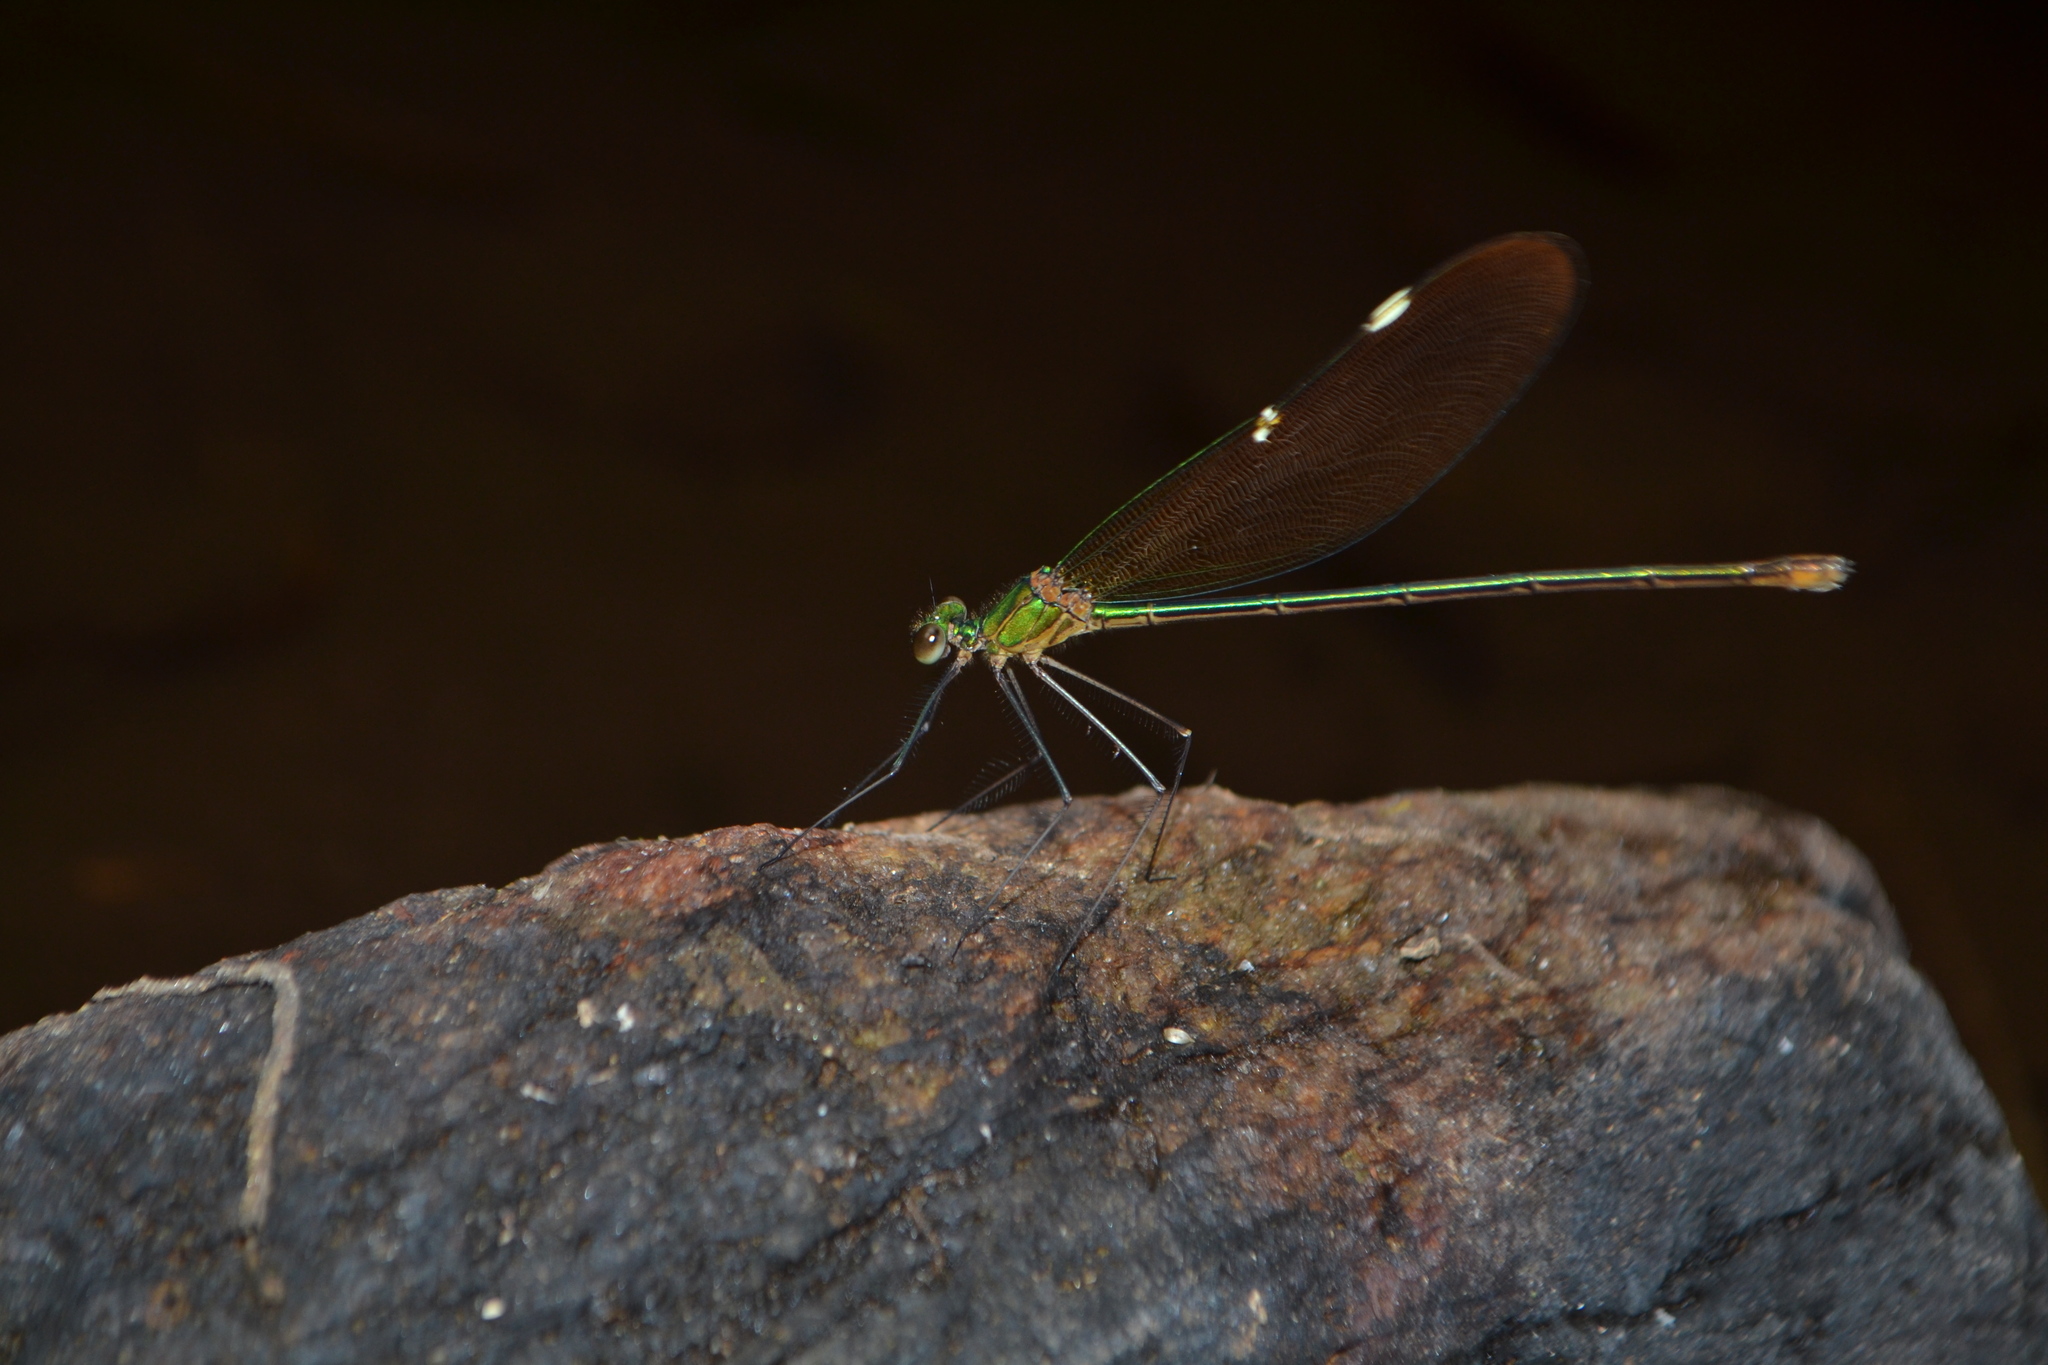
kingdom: Animalia
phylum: Arthropoda
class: Insecta
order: Odonata
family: Calopterygidae
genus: Neurobasis
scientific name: Neurobasis chinensis
